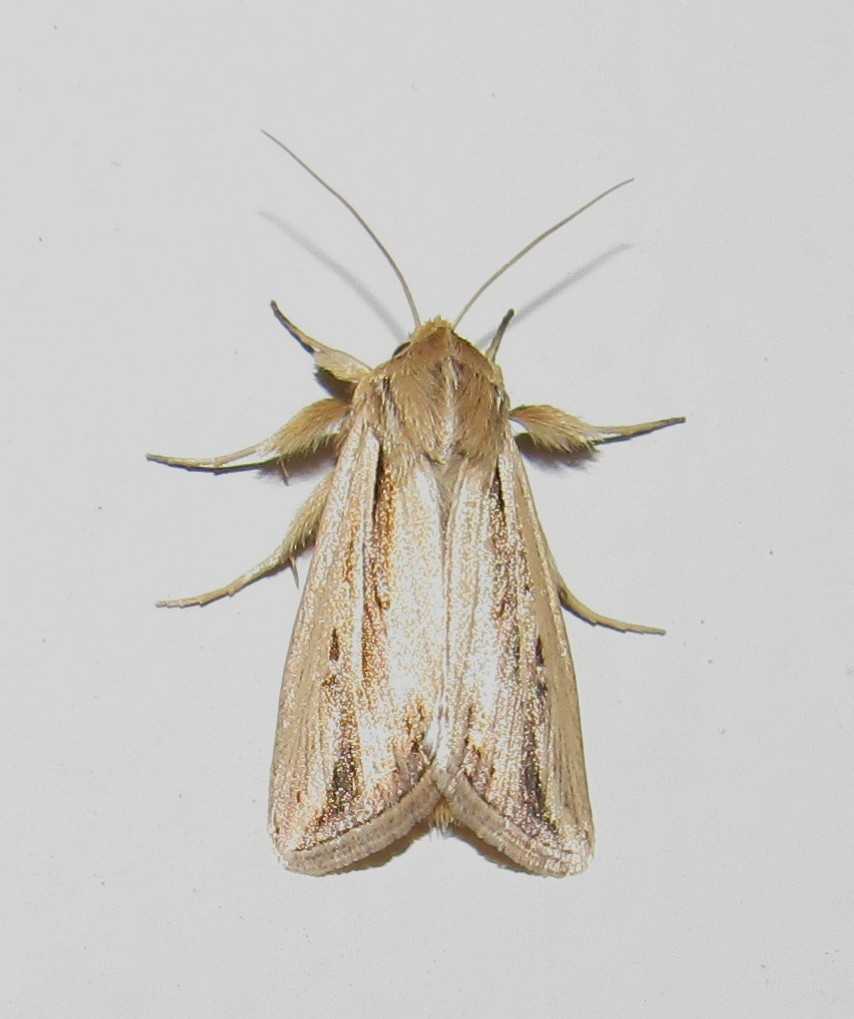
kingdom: Animalia
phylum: Arthropoda
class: Insecta
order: Lepidoptera
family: Noctuidae
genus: Dargida
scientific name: Dargida albilinea
